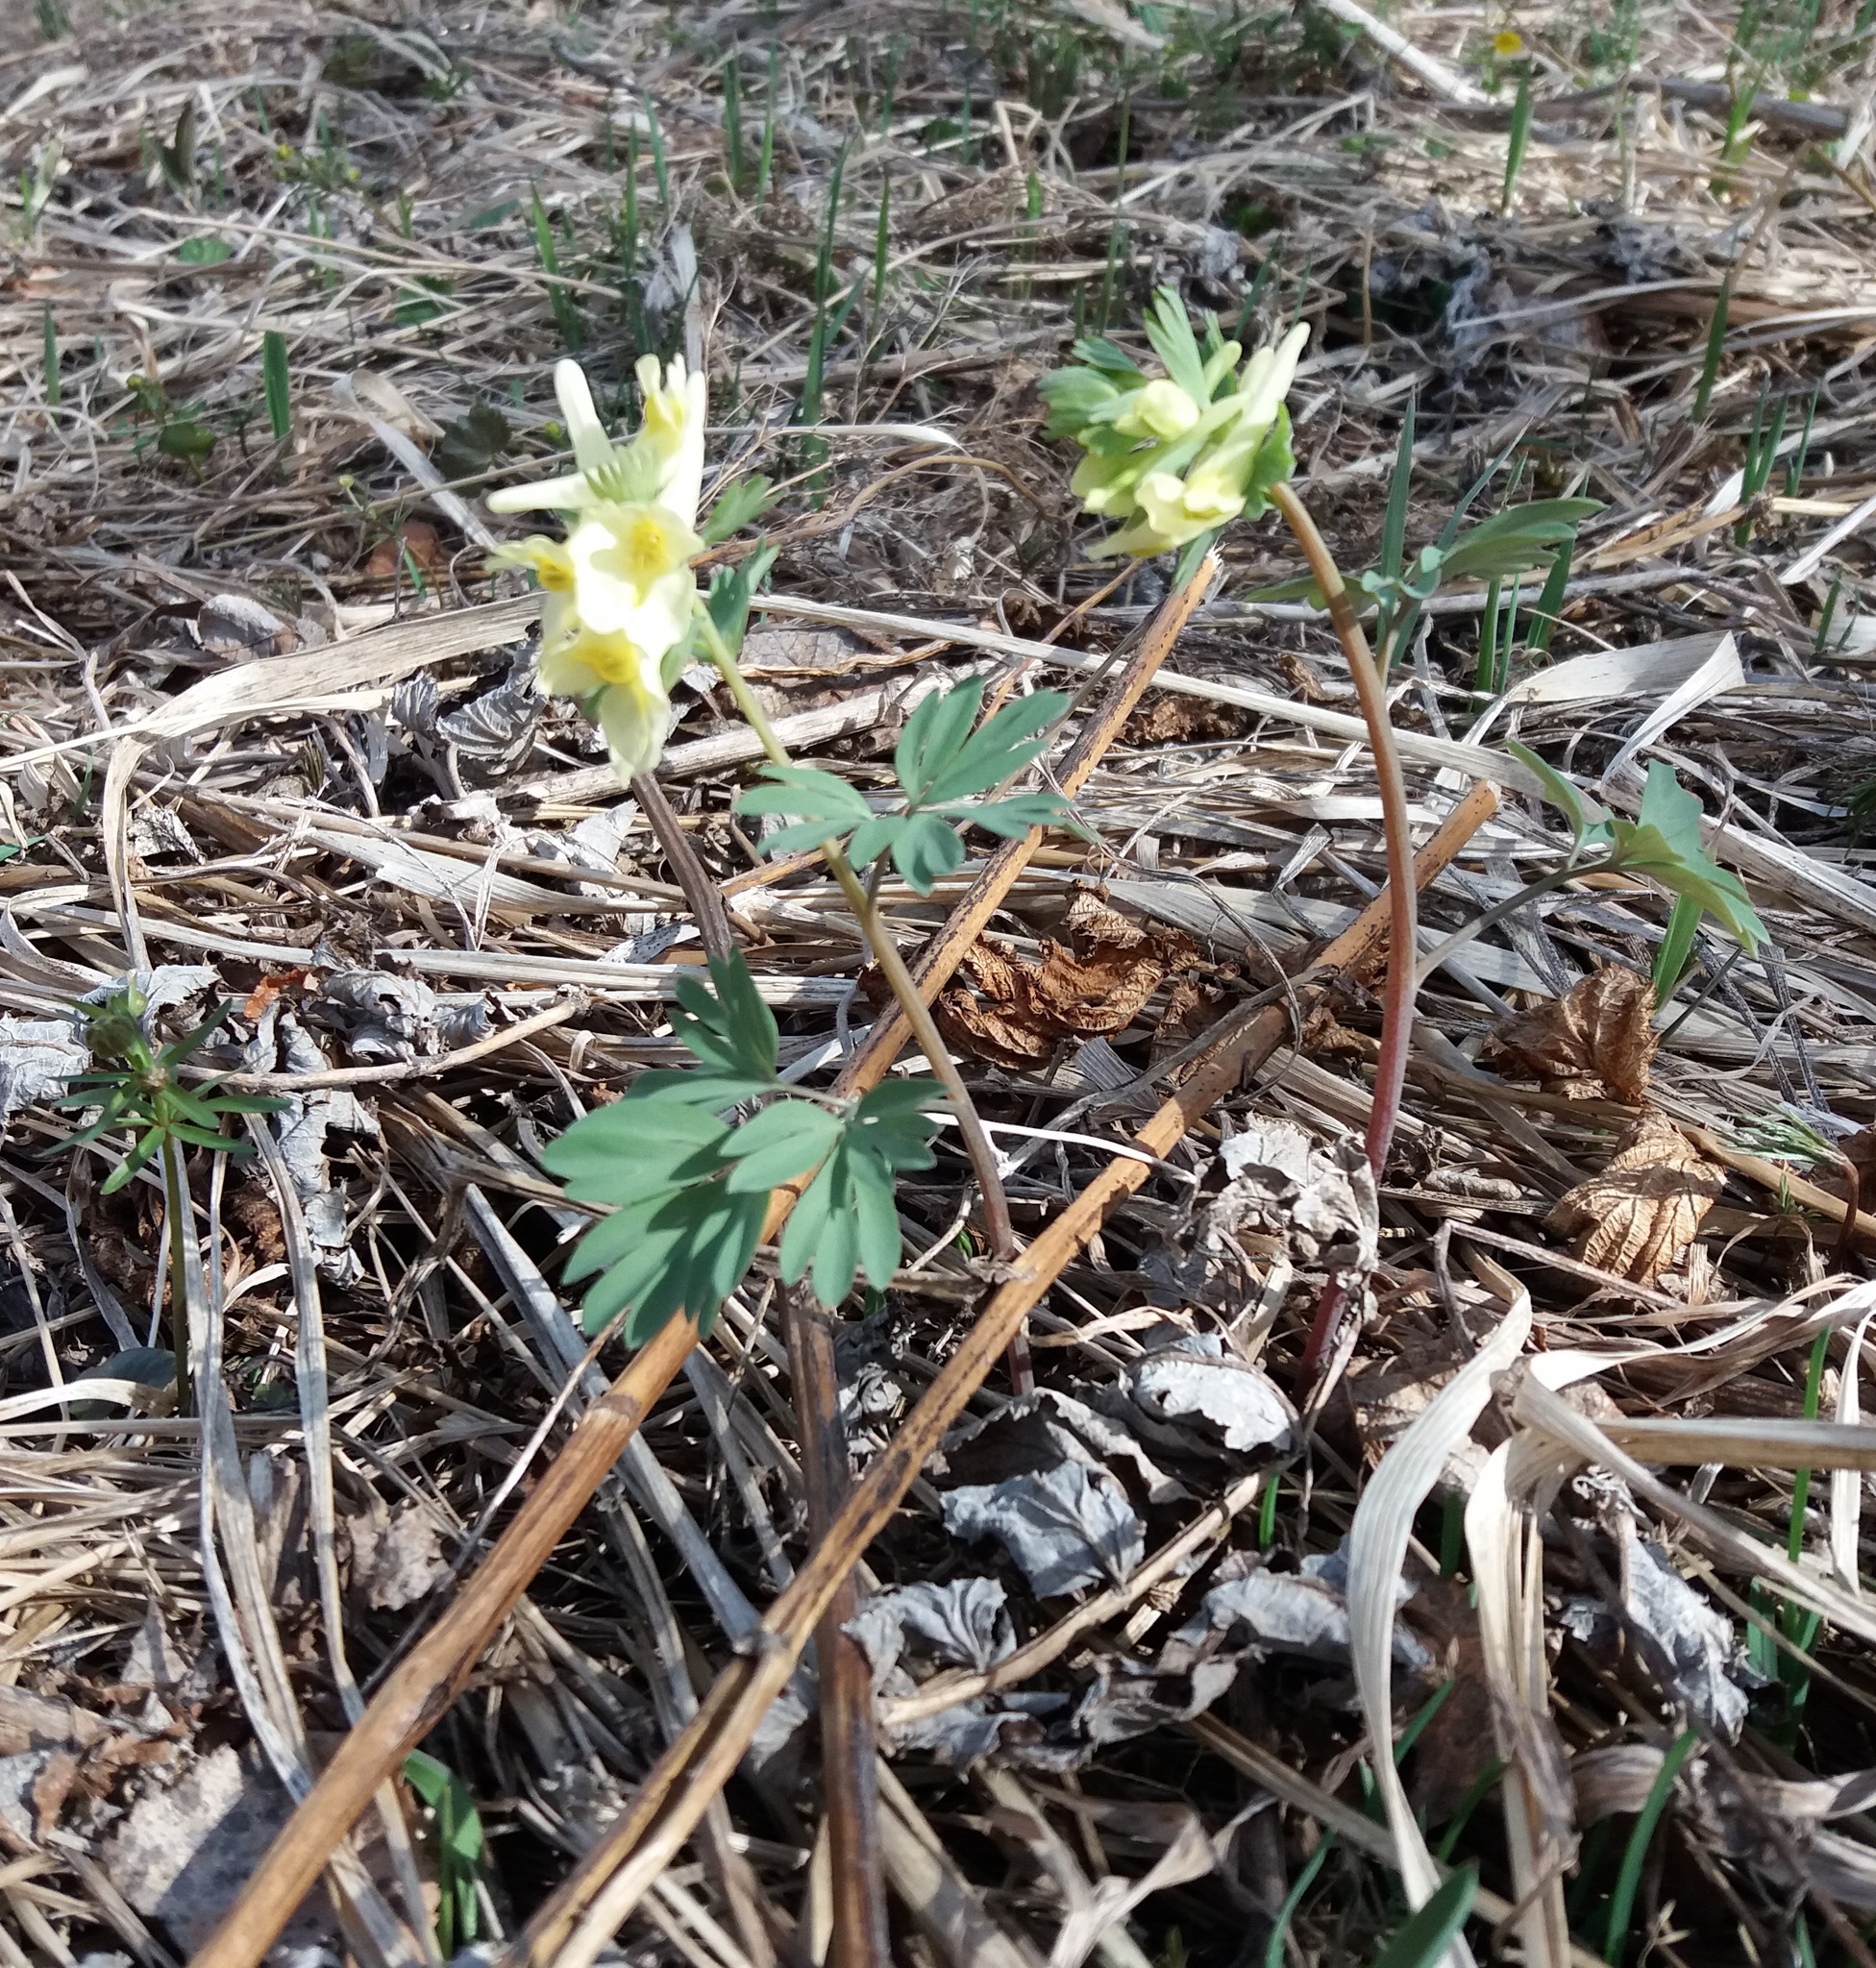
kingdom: Plantae
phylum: Tracheophyta
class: Magnoliopsida
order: Ranunculales
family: Papaveraceae
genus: Corydalis
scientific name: Corydalis bracteata
